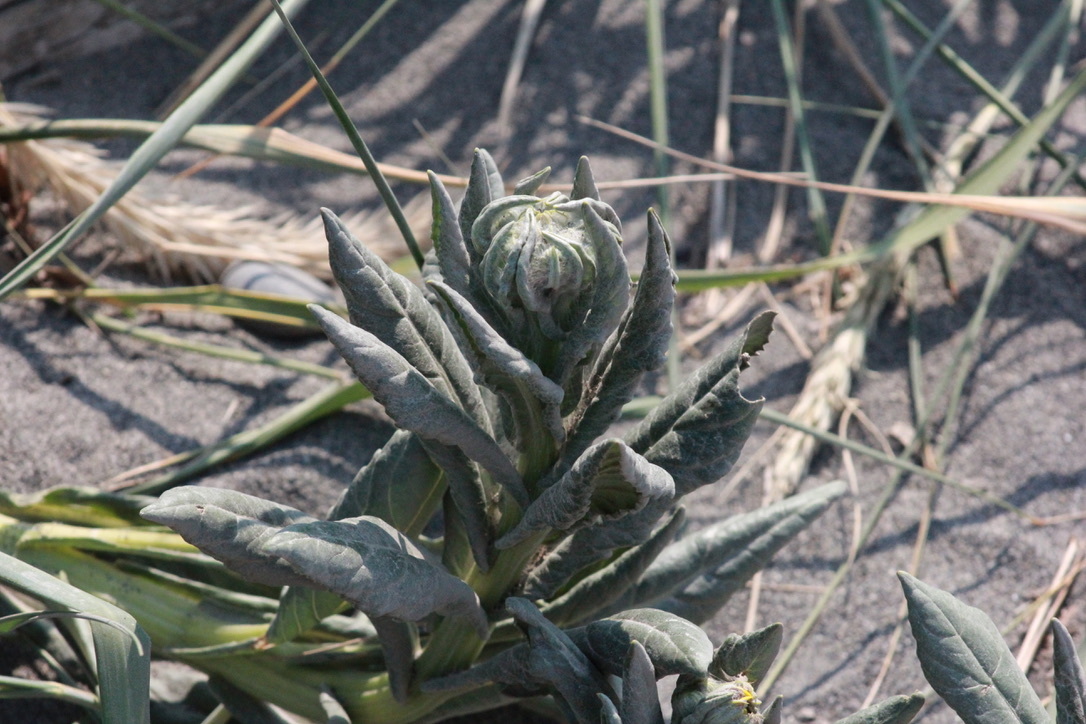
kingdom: Plantae
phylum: Tracheophyta
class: Magnoliopsida
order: Asterales
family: Asteraceae
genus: Jacobaea
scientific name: Jacobaea pseudoarnica
